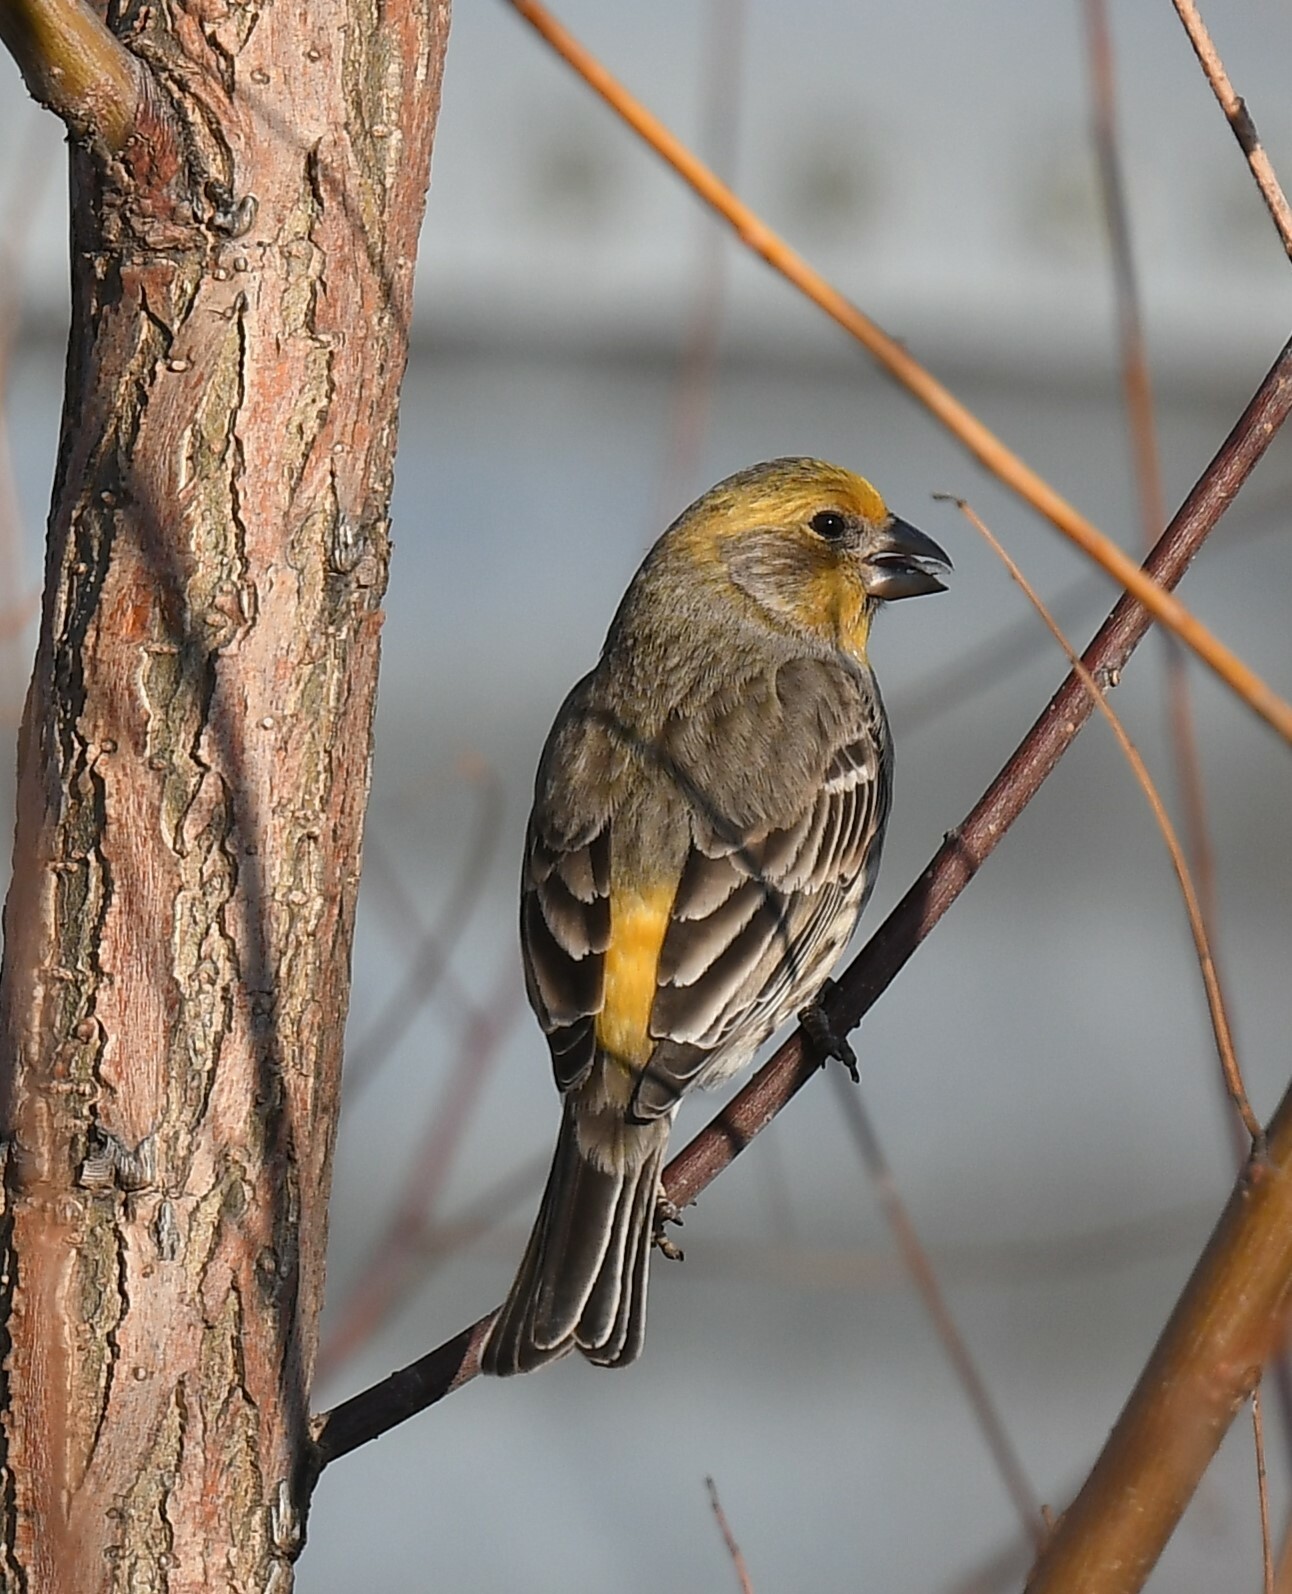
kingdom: Animalia
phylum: Chordata
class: Aves
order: Passeriformes
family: Fringillidae
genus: Haemorhous
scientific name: Haemorhous mexicanus
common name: House finch
